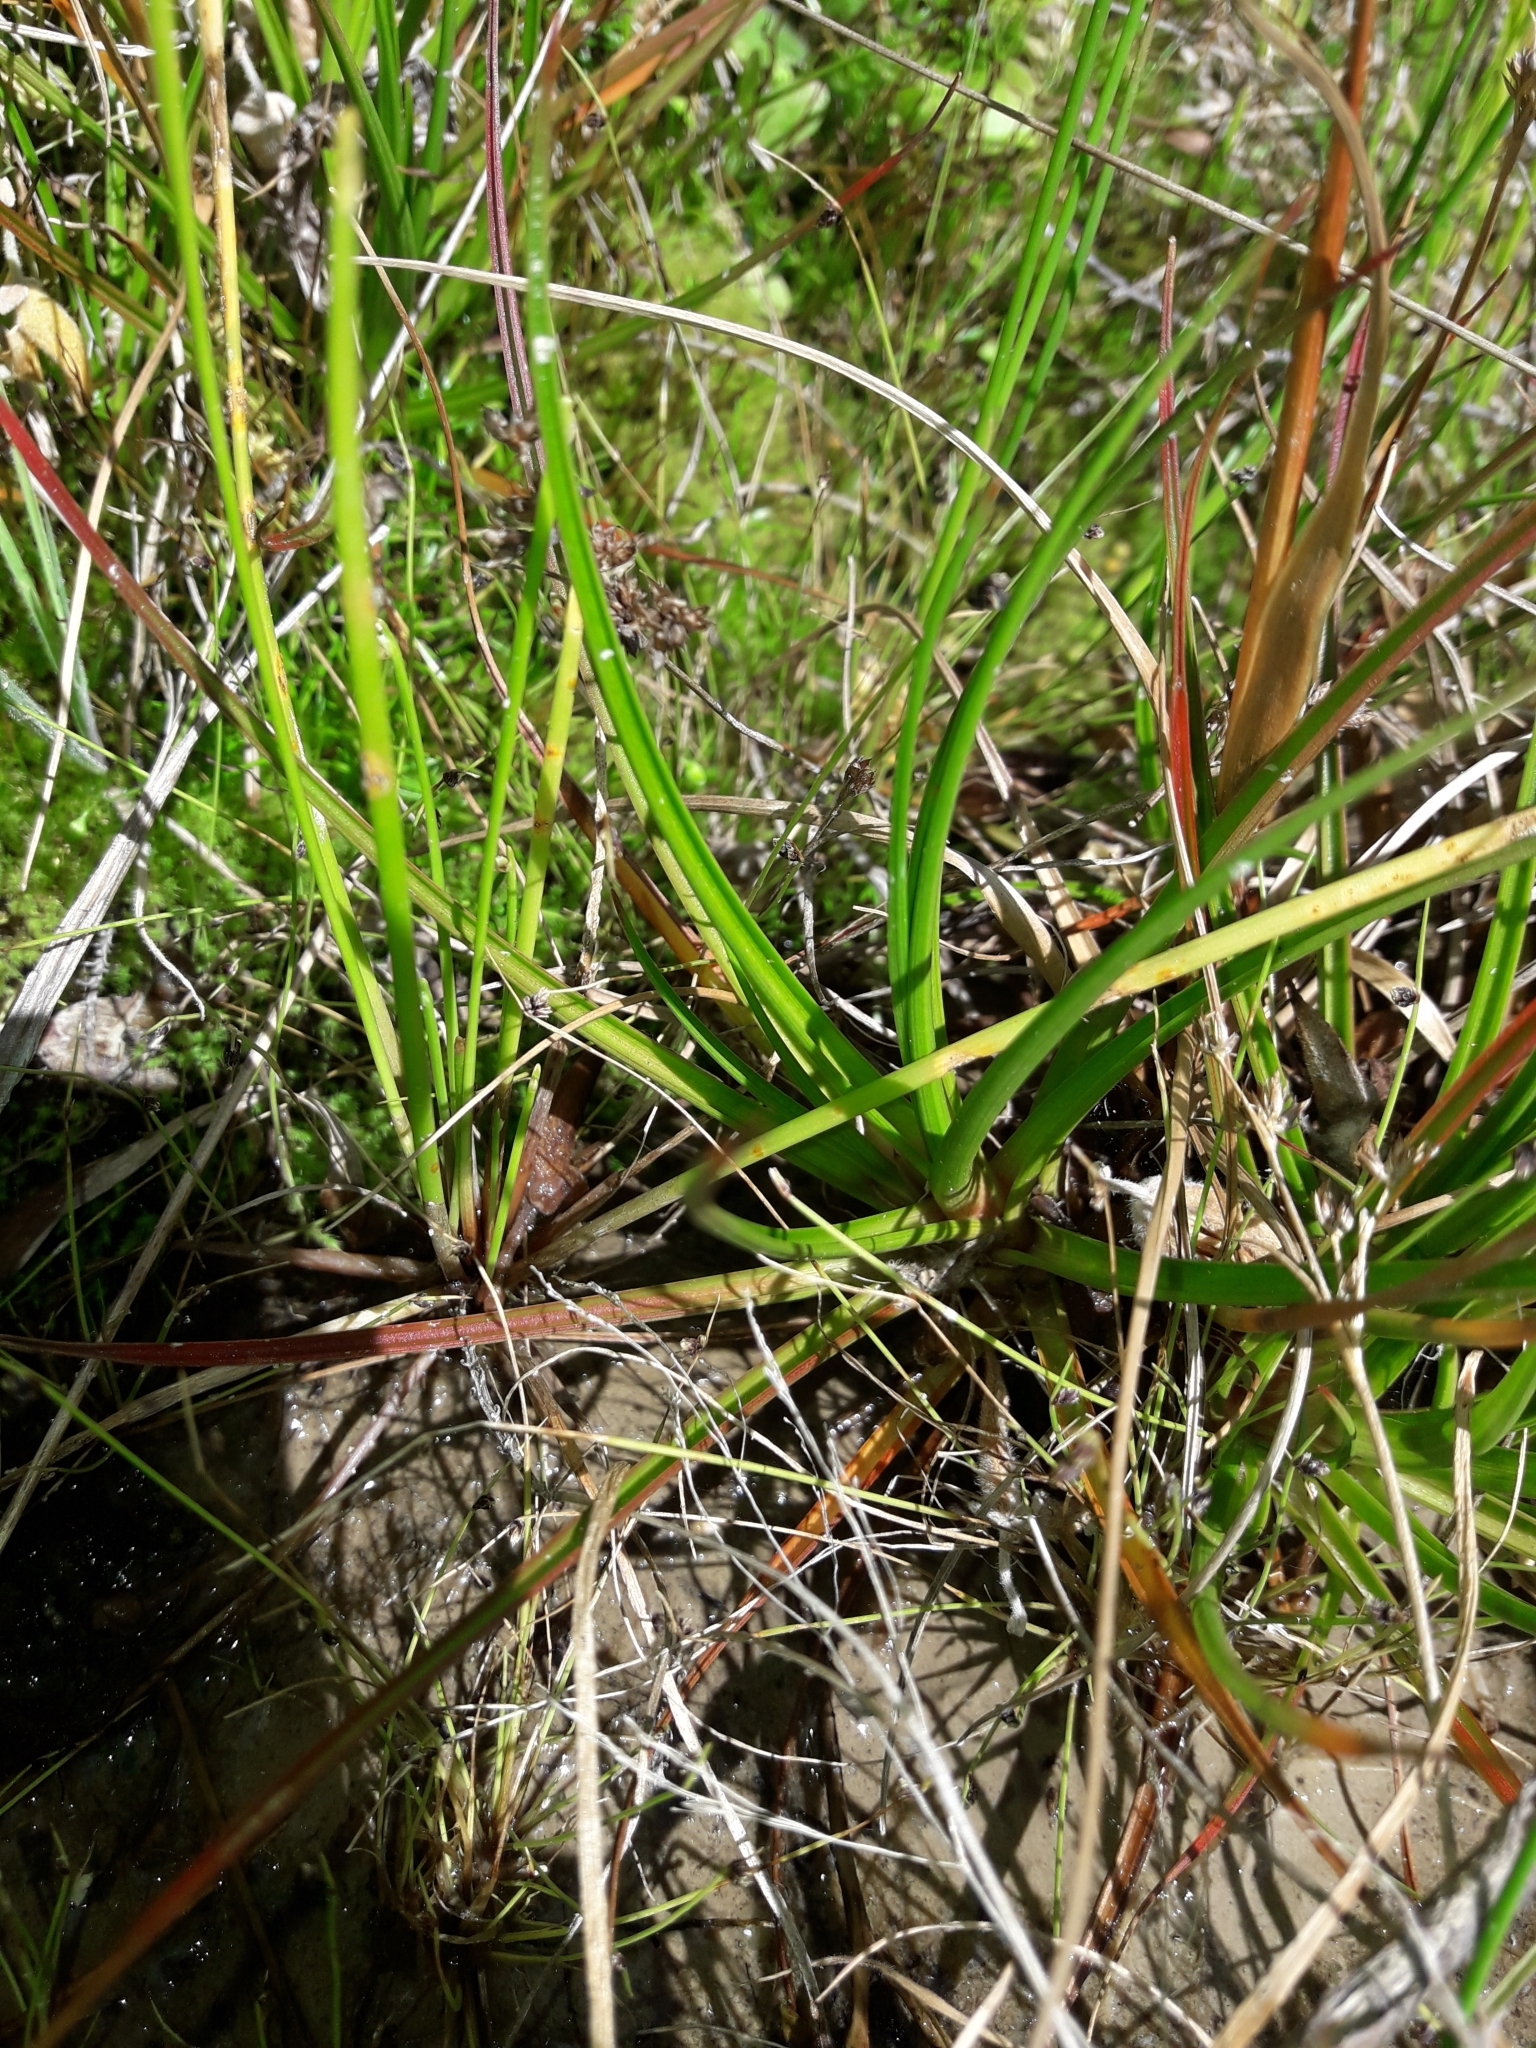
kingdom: Plantae
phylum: Tracheophyta
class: Liliopsida
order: Poales
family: Juncaceae
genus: Juncus
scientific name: Juncus caespiticius
